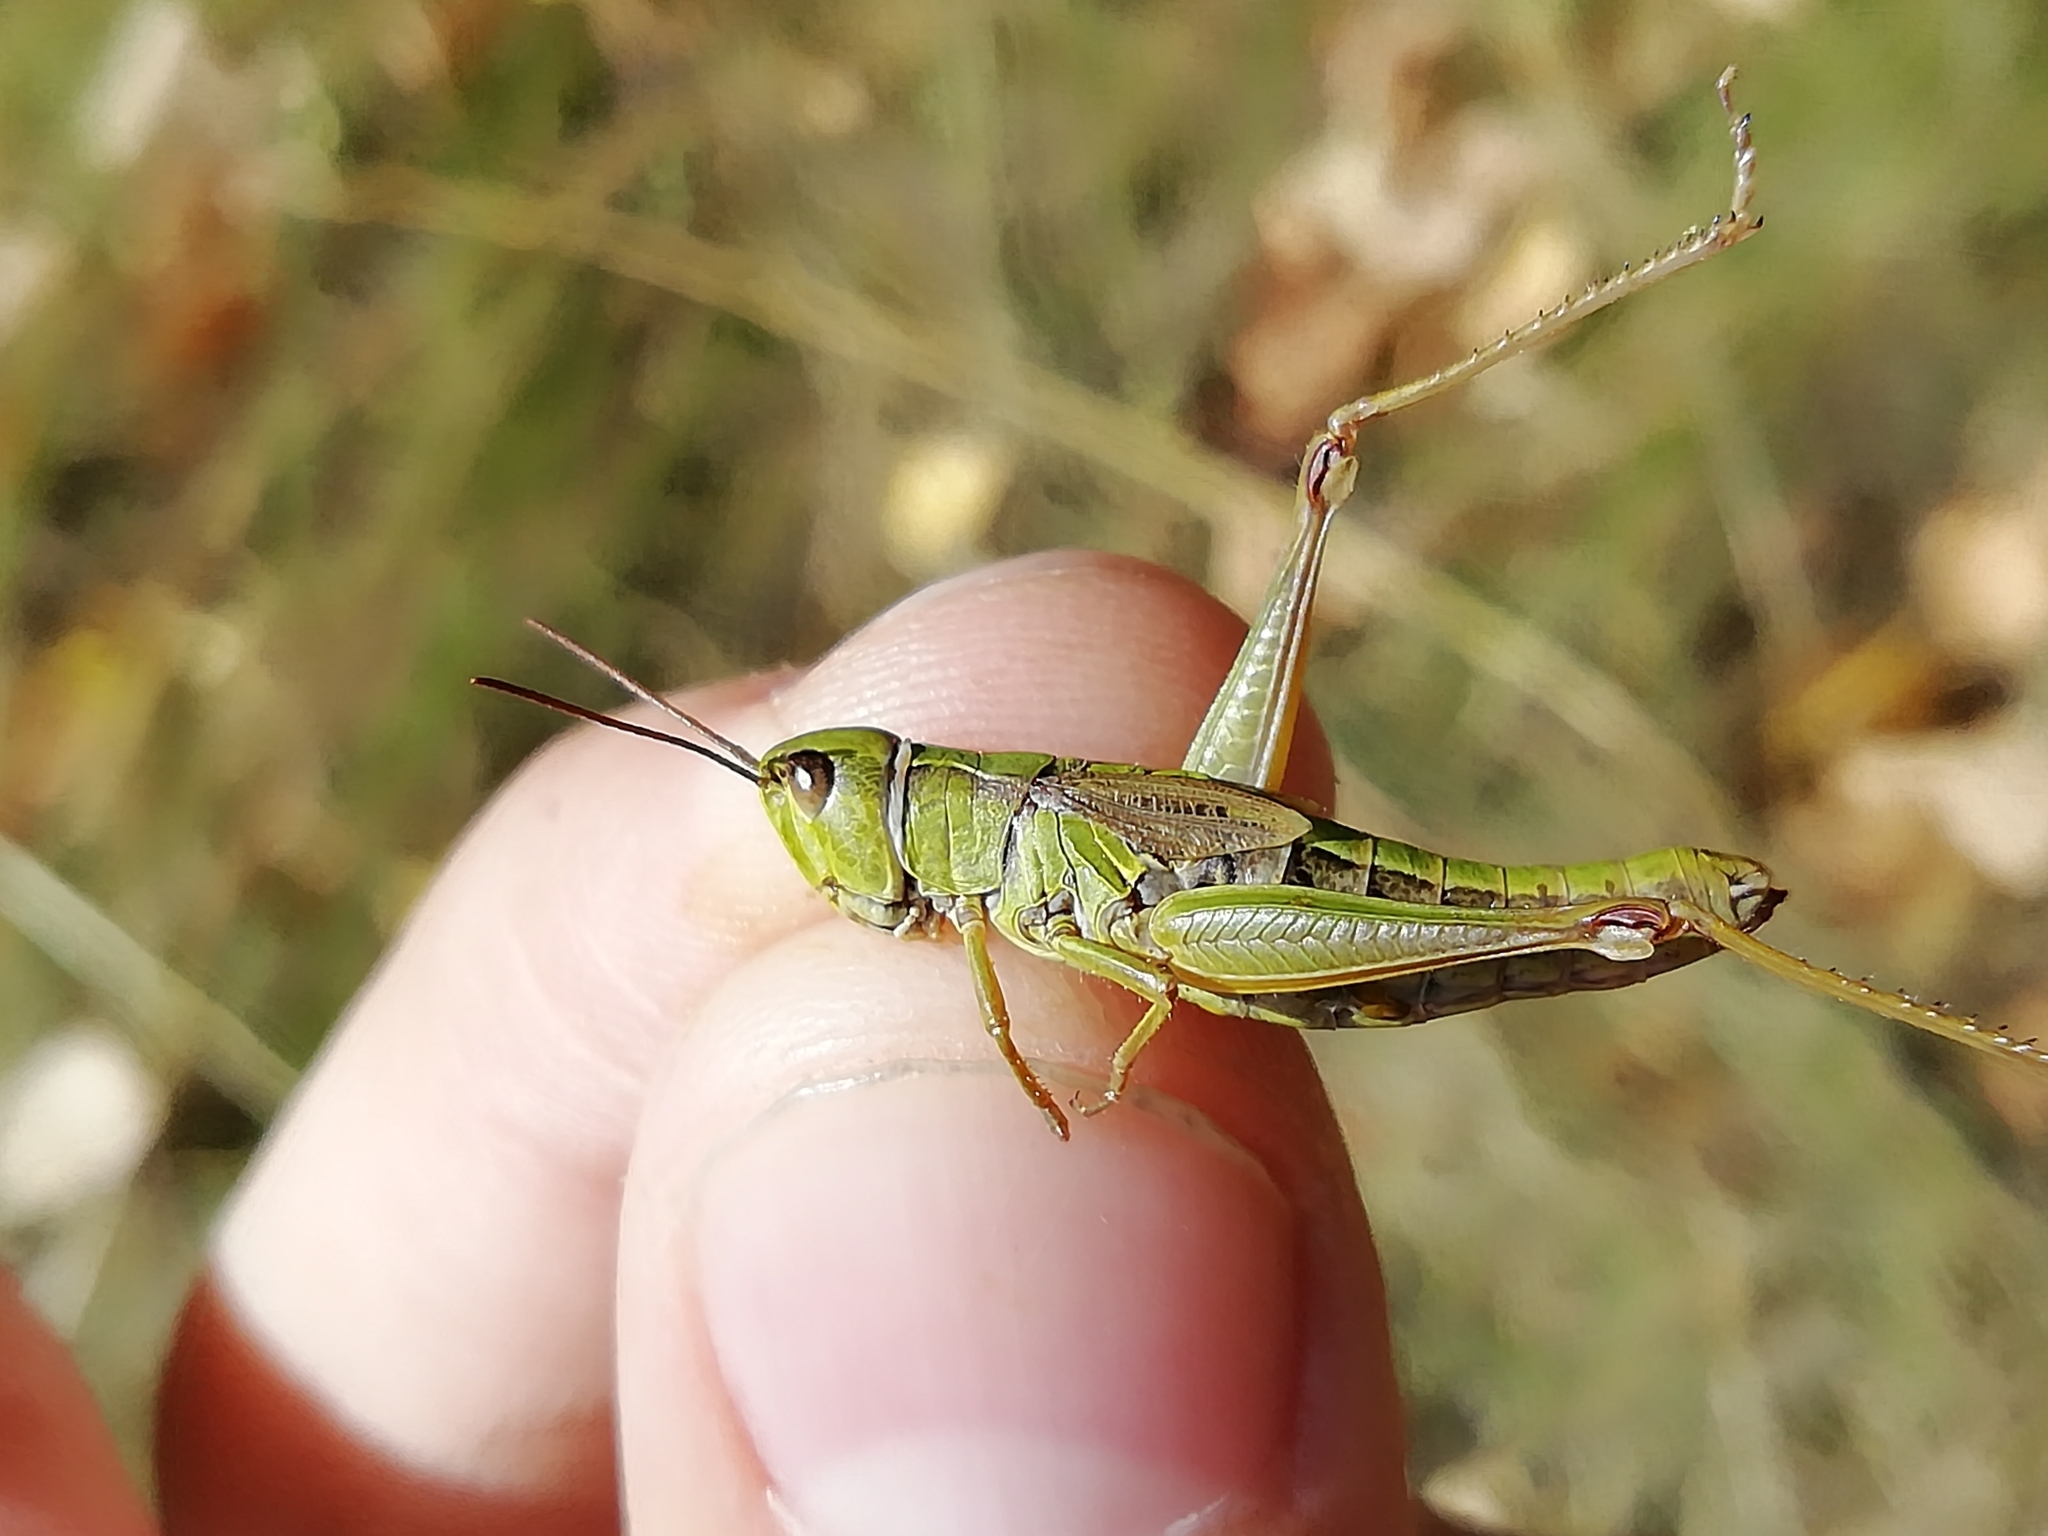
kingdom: Animalia
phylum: Arthropoda
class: Insecta
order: Orthoptera
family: Acrididae
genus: Chorthippus
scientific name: Chorthippus fallax
